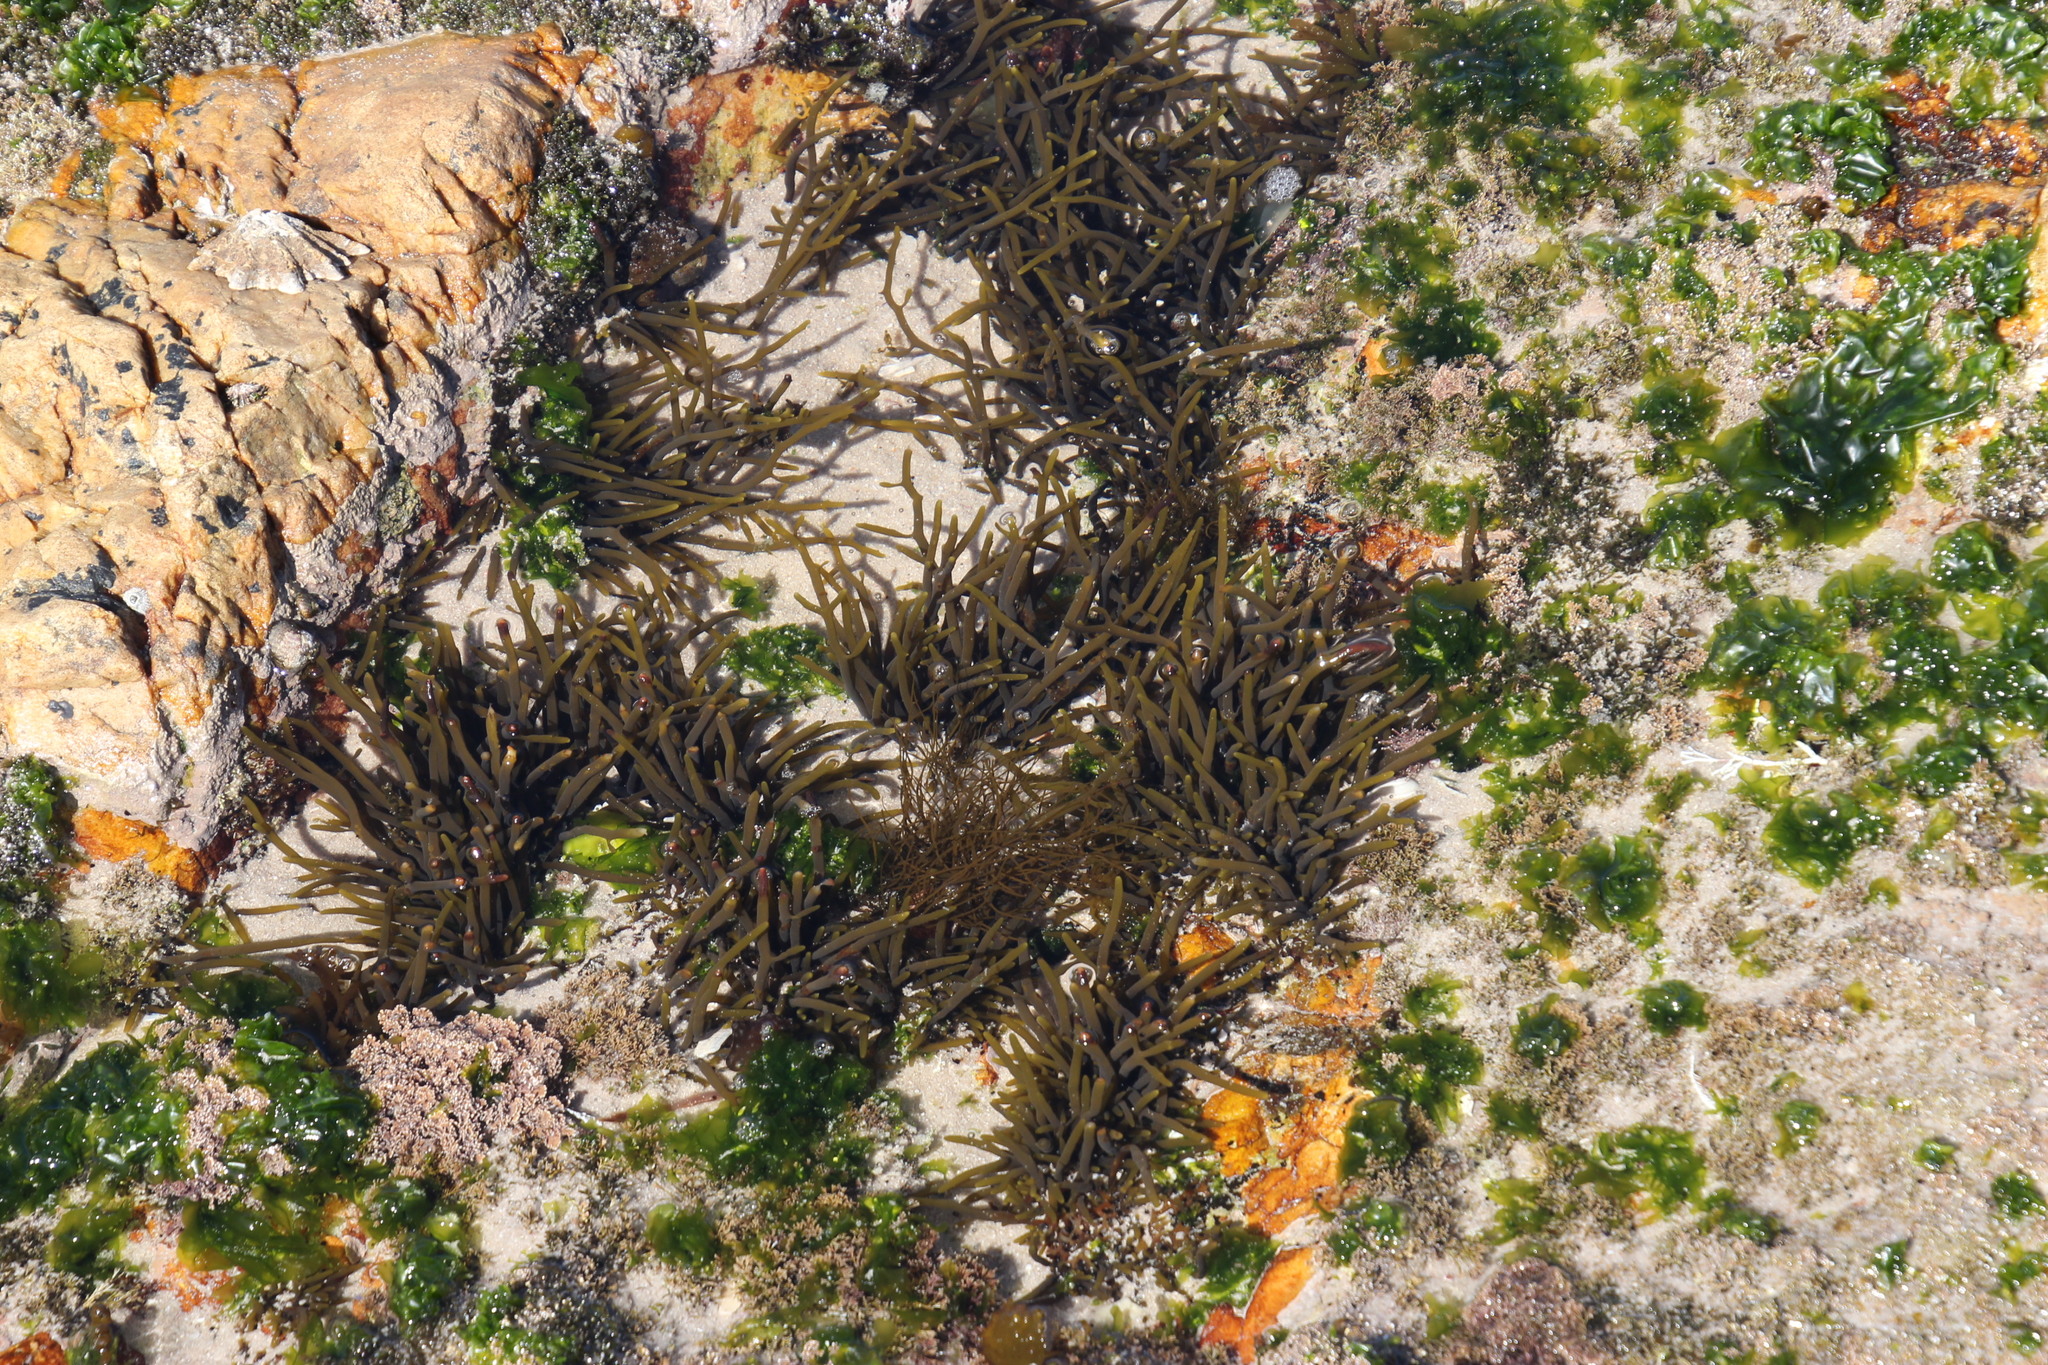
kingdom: Chromista
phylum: Ochrophyta
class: Phaeophyceae
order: Fucales
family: Sargassaceae
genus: Brassicophycus
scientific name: Brassicophycus
